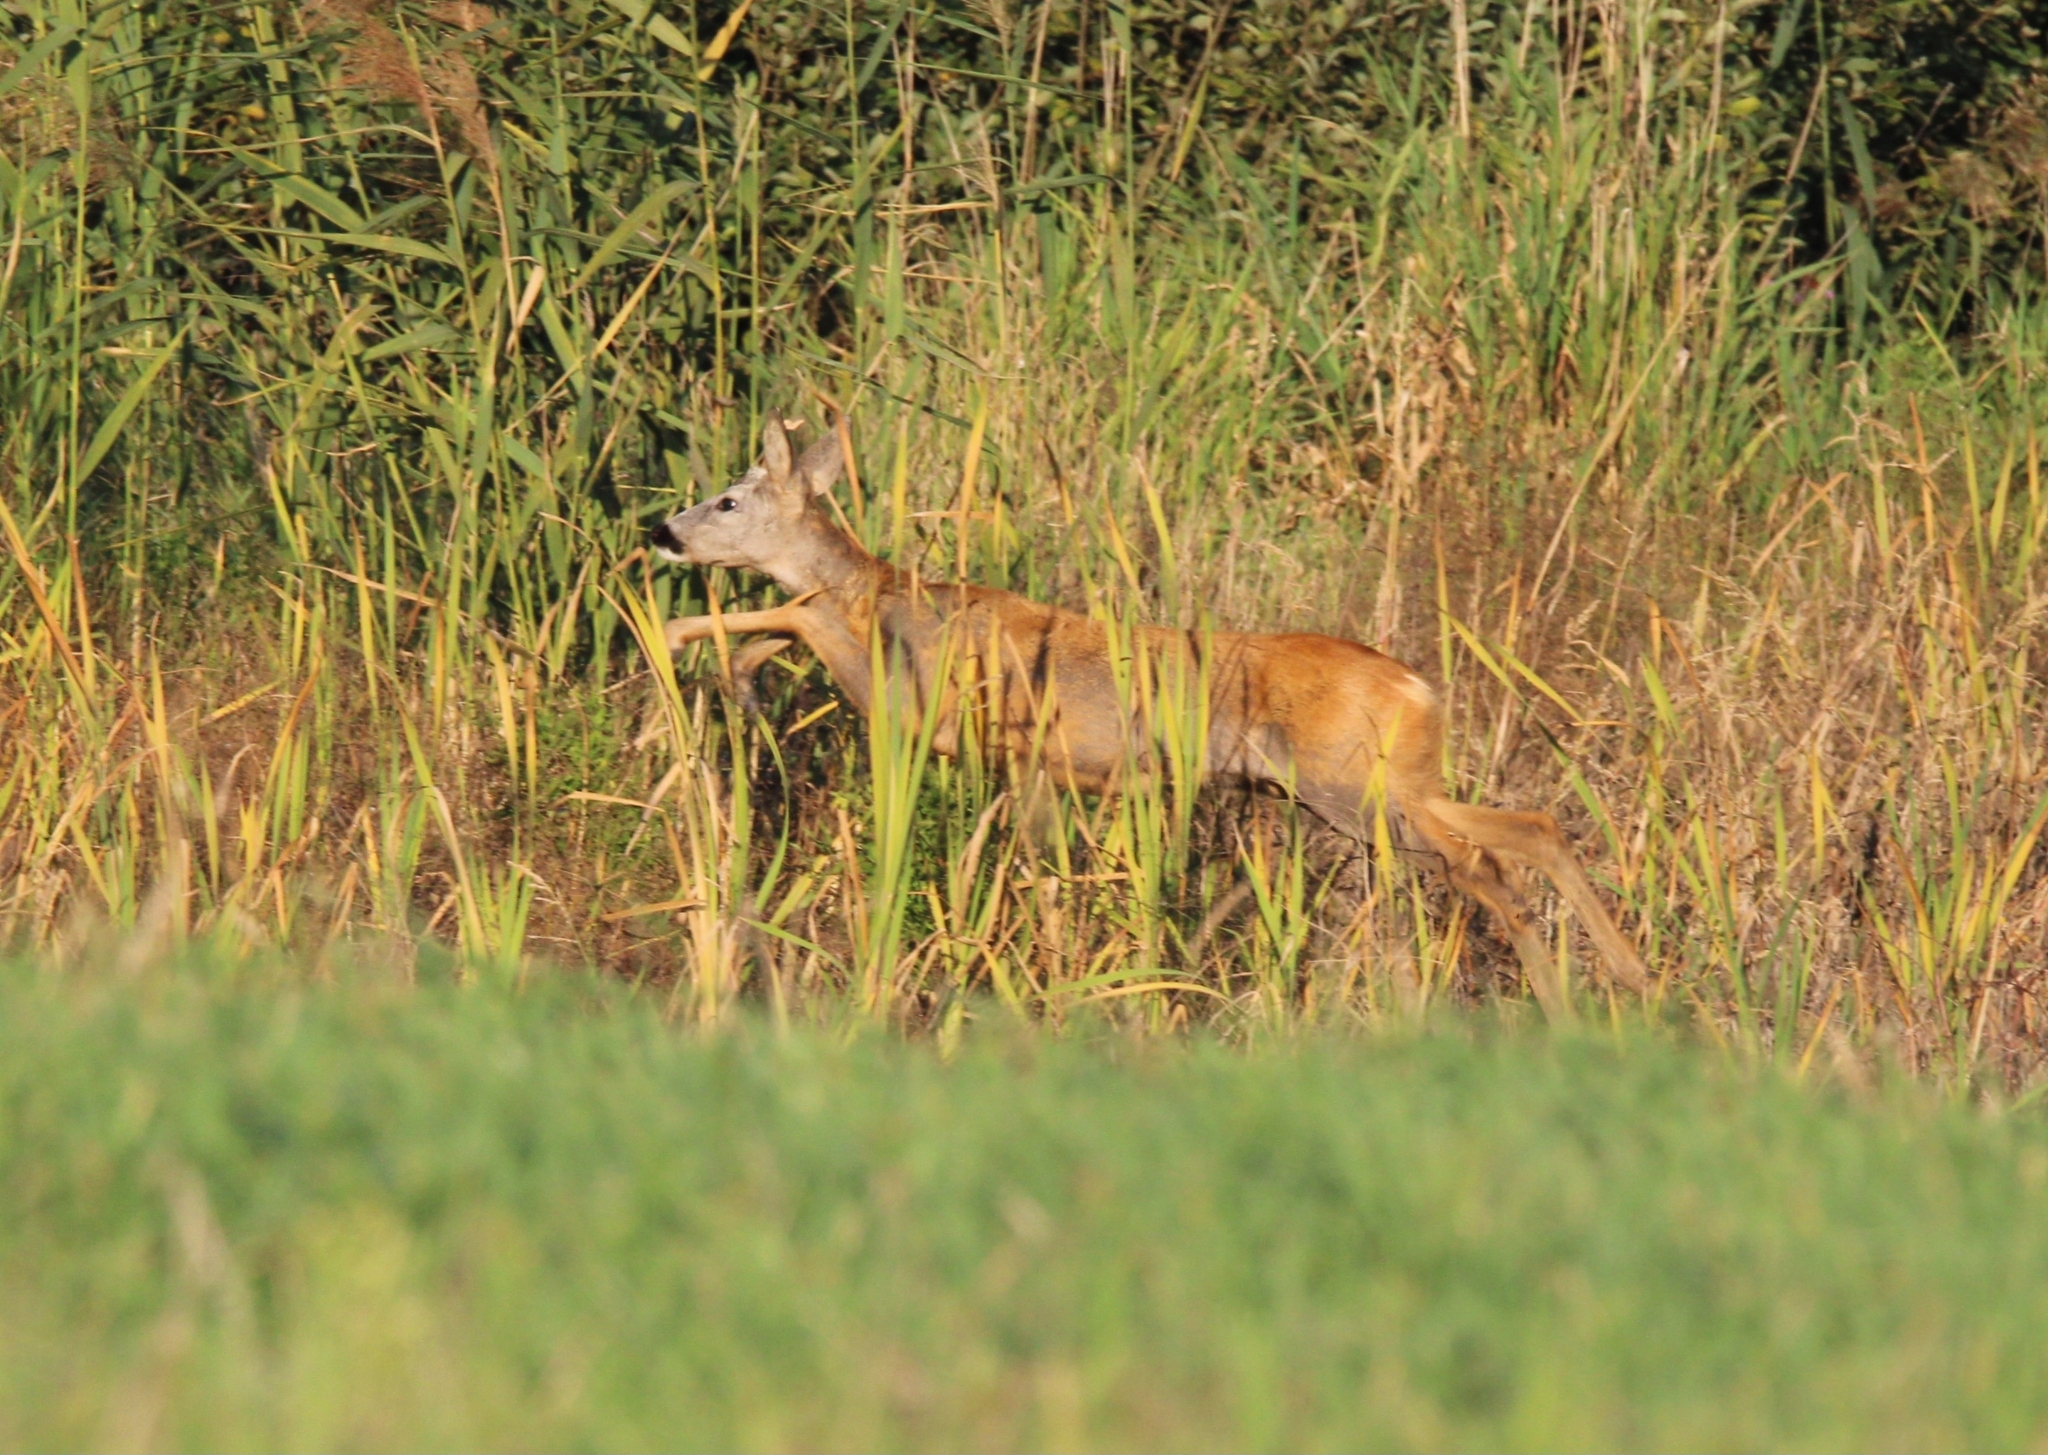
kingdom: Animalia
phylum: Chordata
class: Mammalia
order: Artiodactyla
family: Cervidae
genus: Capreolus
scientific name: Capreolus capreolus
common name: Western roe deer
